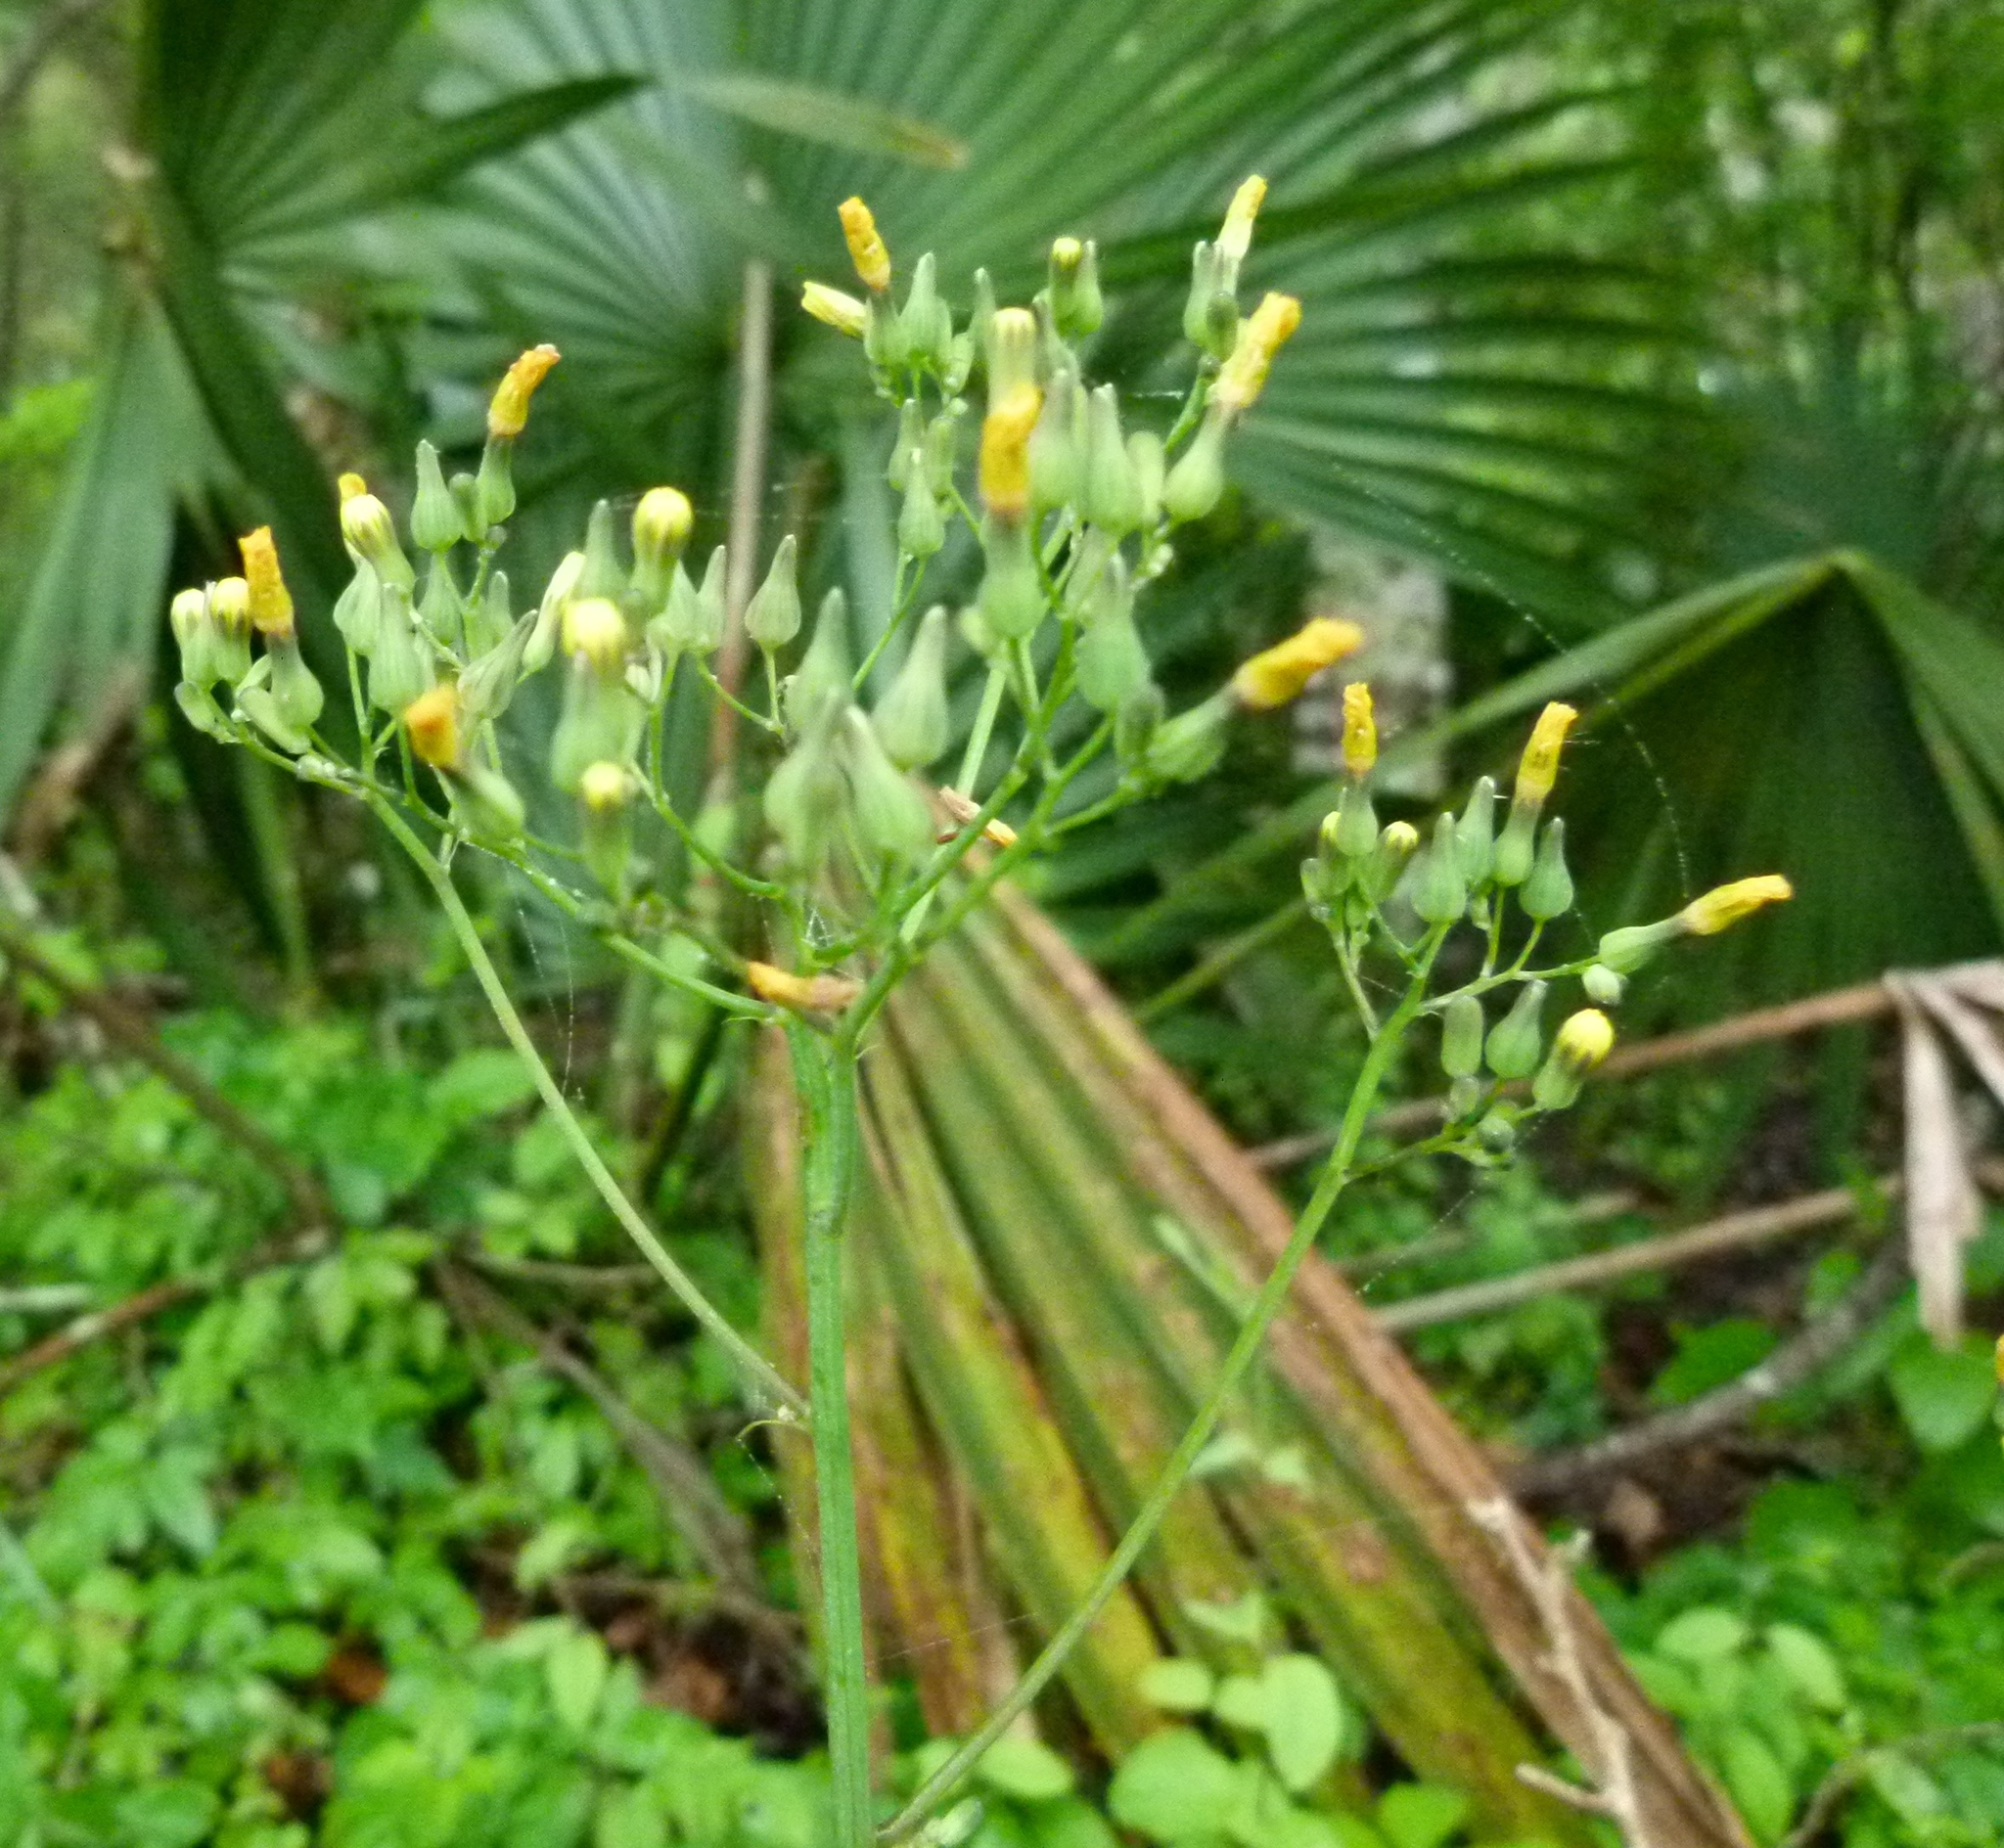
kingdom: Plantae
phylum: Tracheophyta
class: Magnoliopsida
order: Asterales
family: Asteraceae
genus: Youngia
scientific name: Youngia japonica
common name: Oriental false hawksbeard
